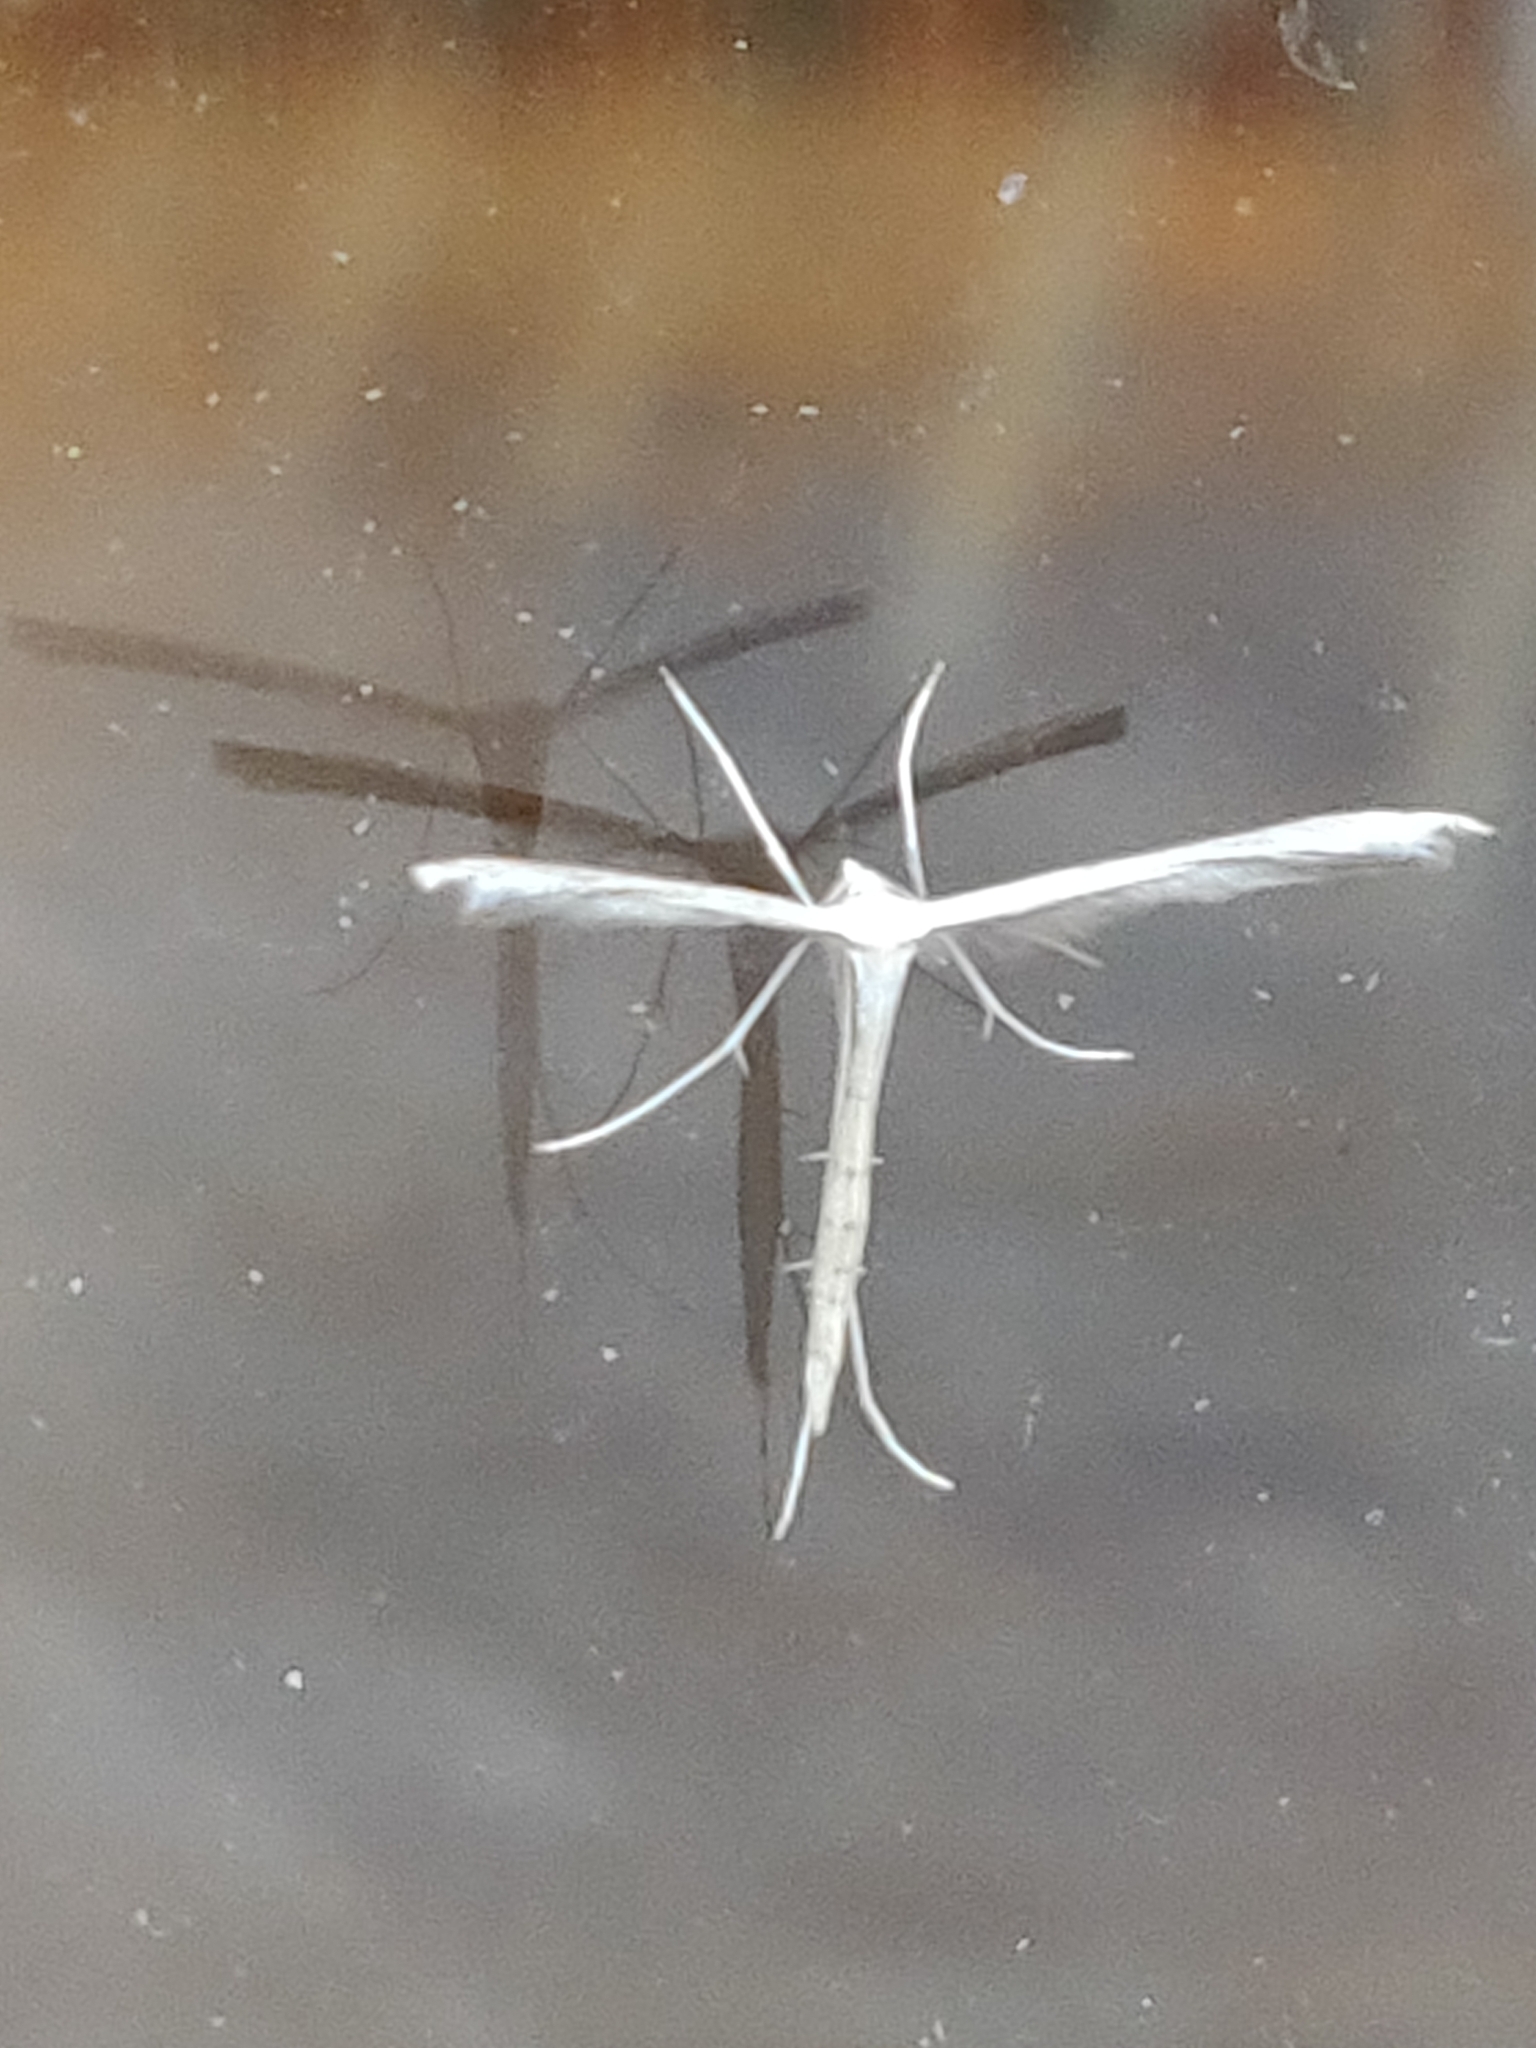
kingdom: Animalia
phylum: Arthropoda
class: Insecta
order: Lepidoptera
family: Pterophoridae
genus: Stenoptilia
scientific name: Stenoptilia zophodactylus
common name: Dowdy plume
